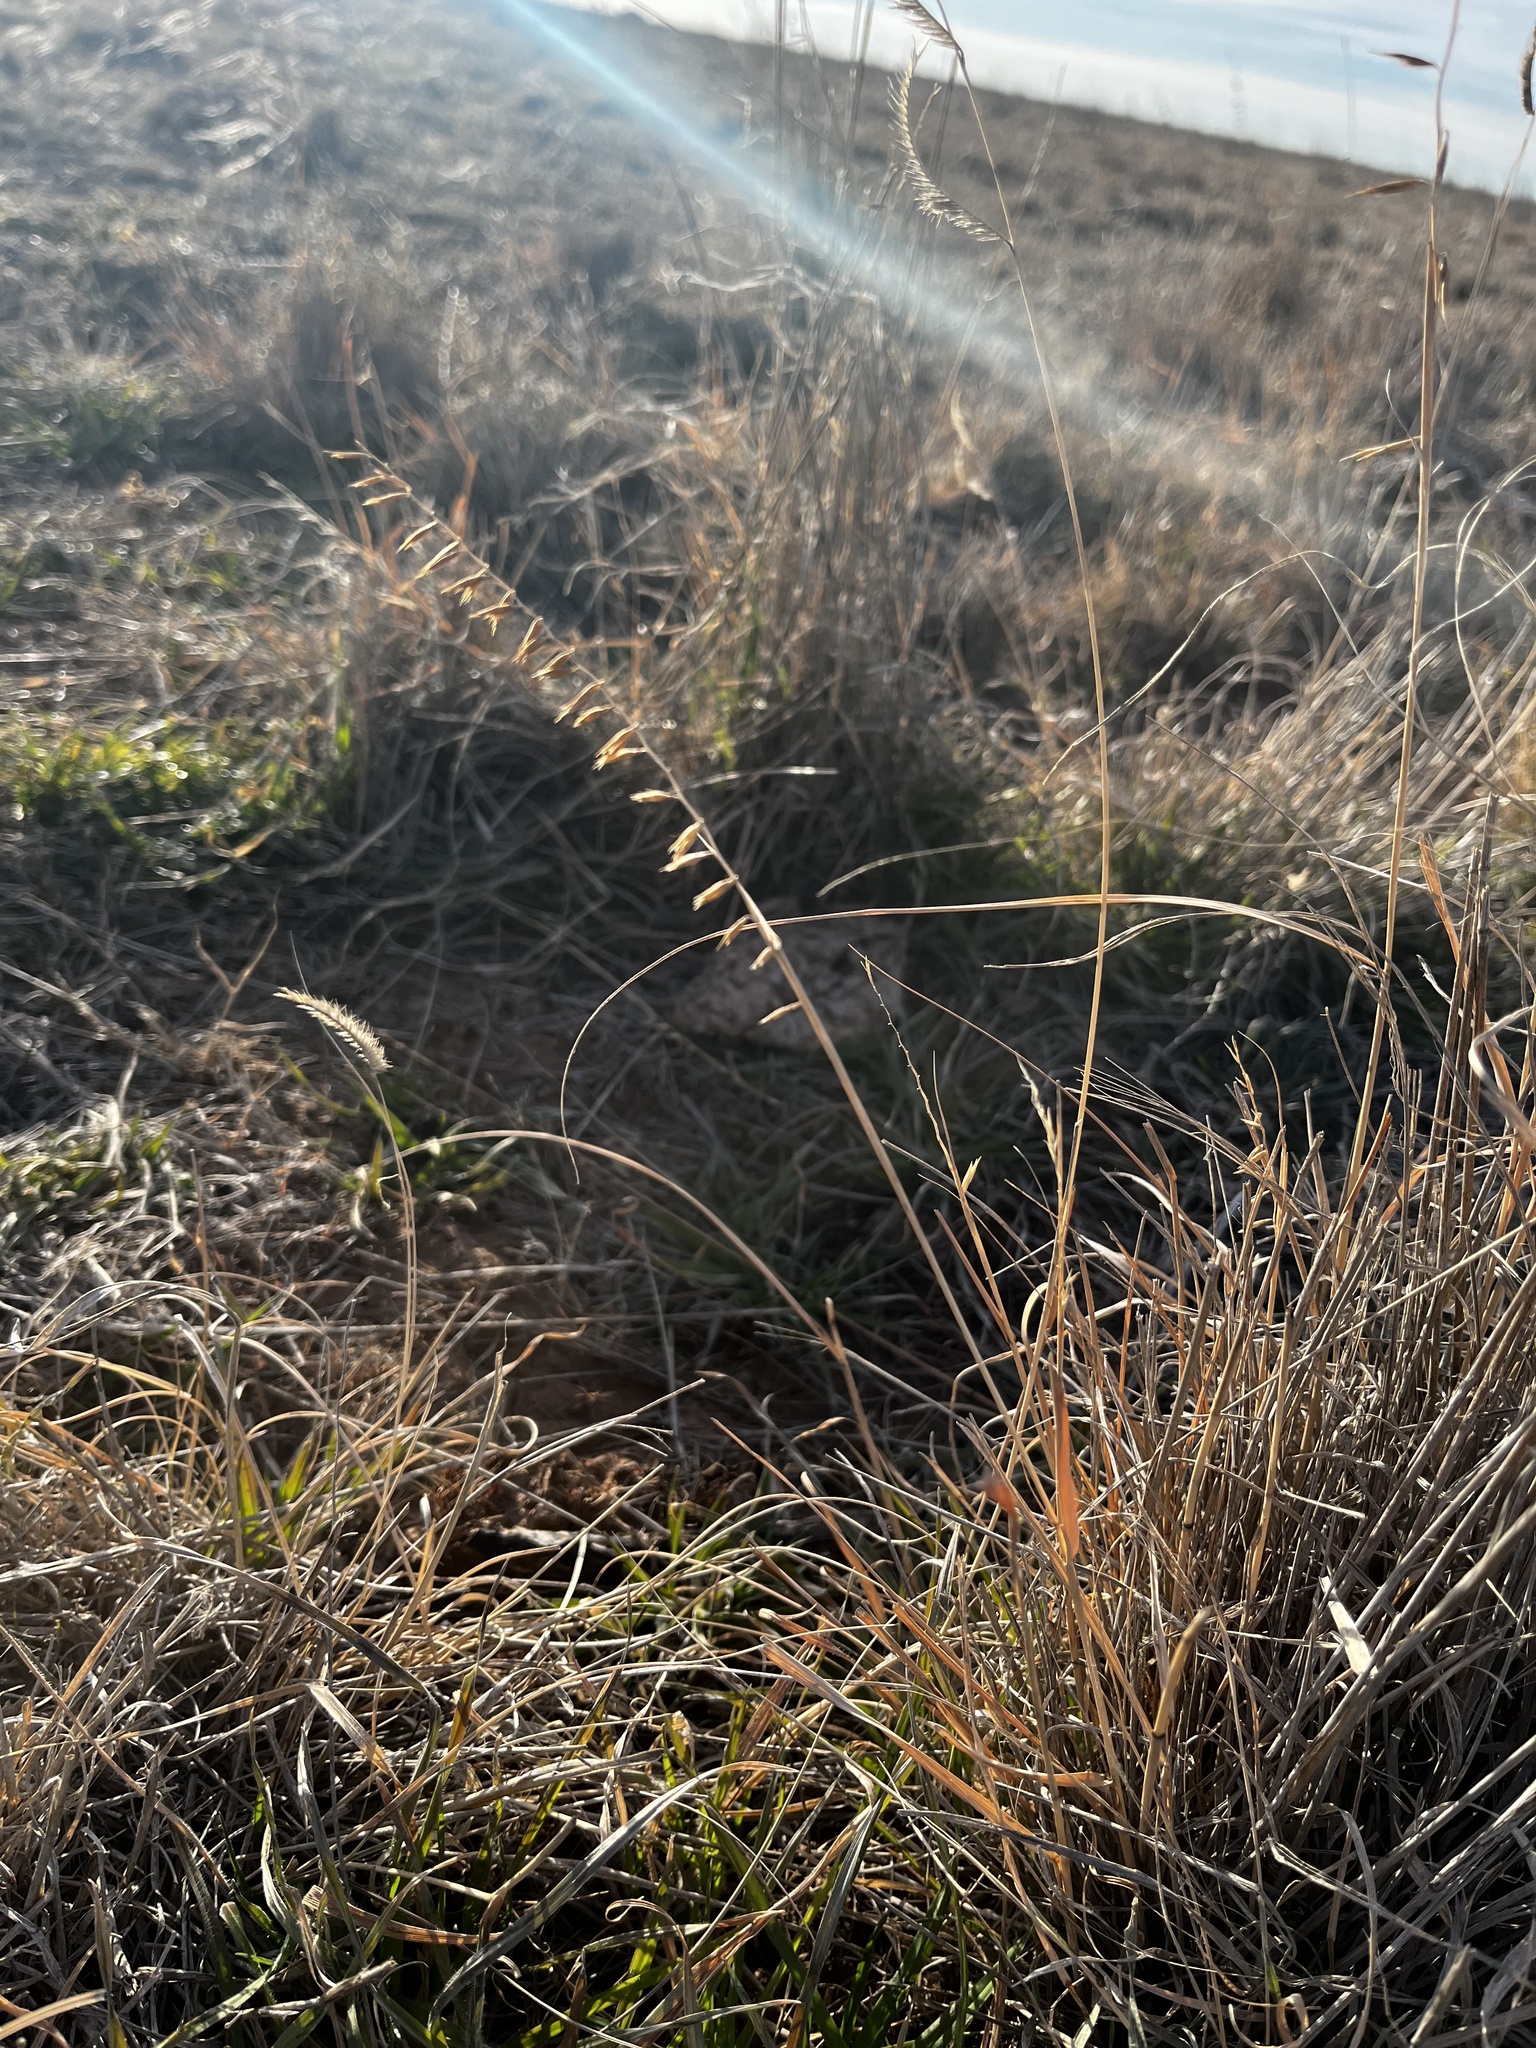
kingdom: Plantae
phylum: Tracheophyta
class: Liliopsida
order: Poales
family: Poaceae
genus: Bouteloua
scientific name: Bouteloua curtipendula
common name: Side-oats grama
